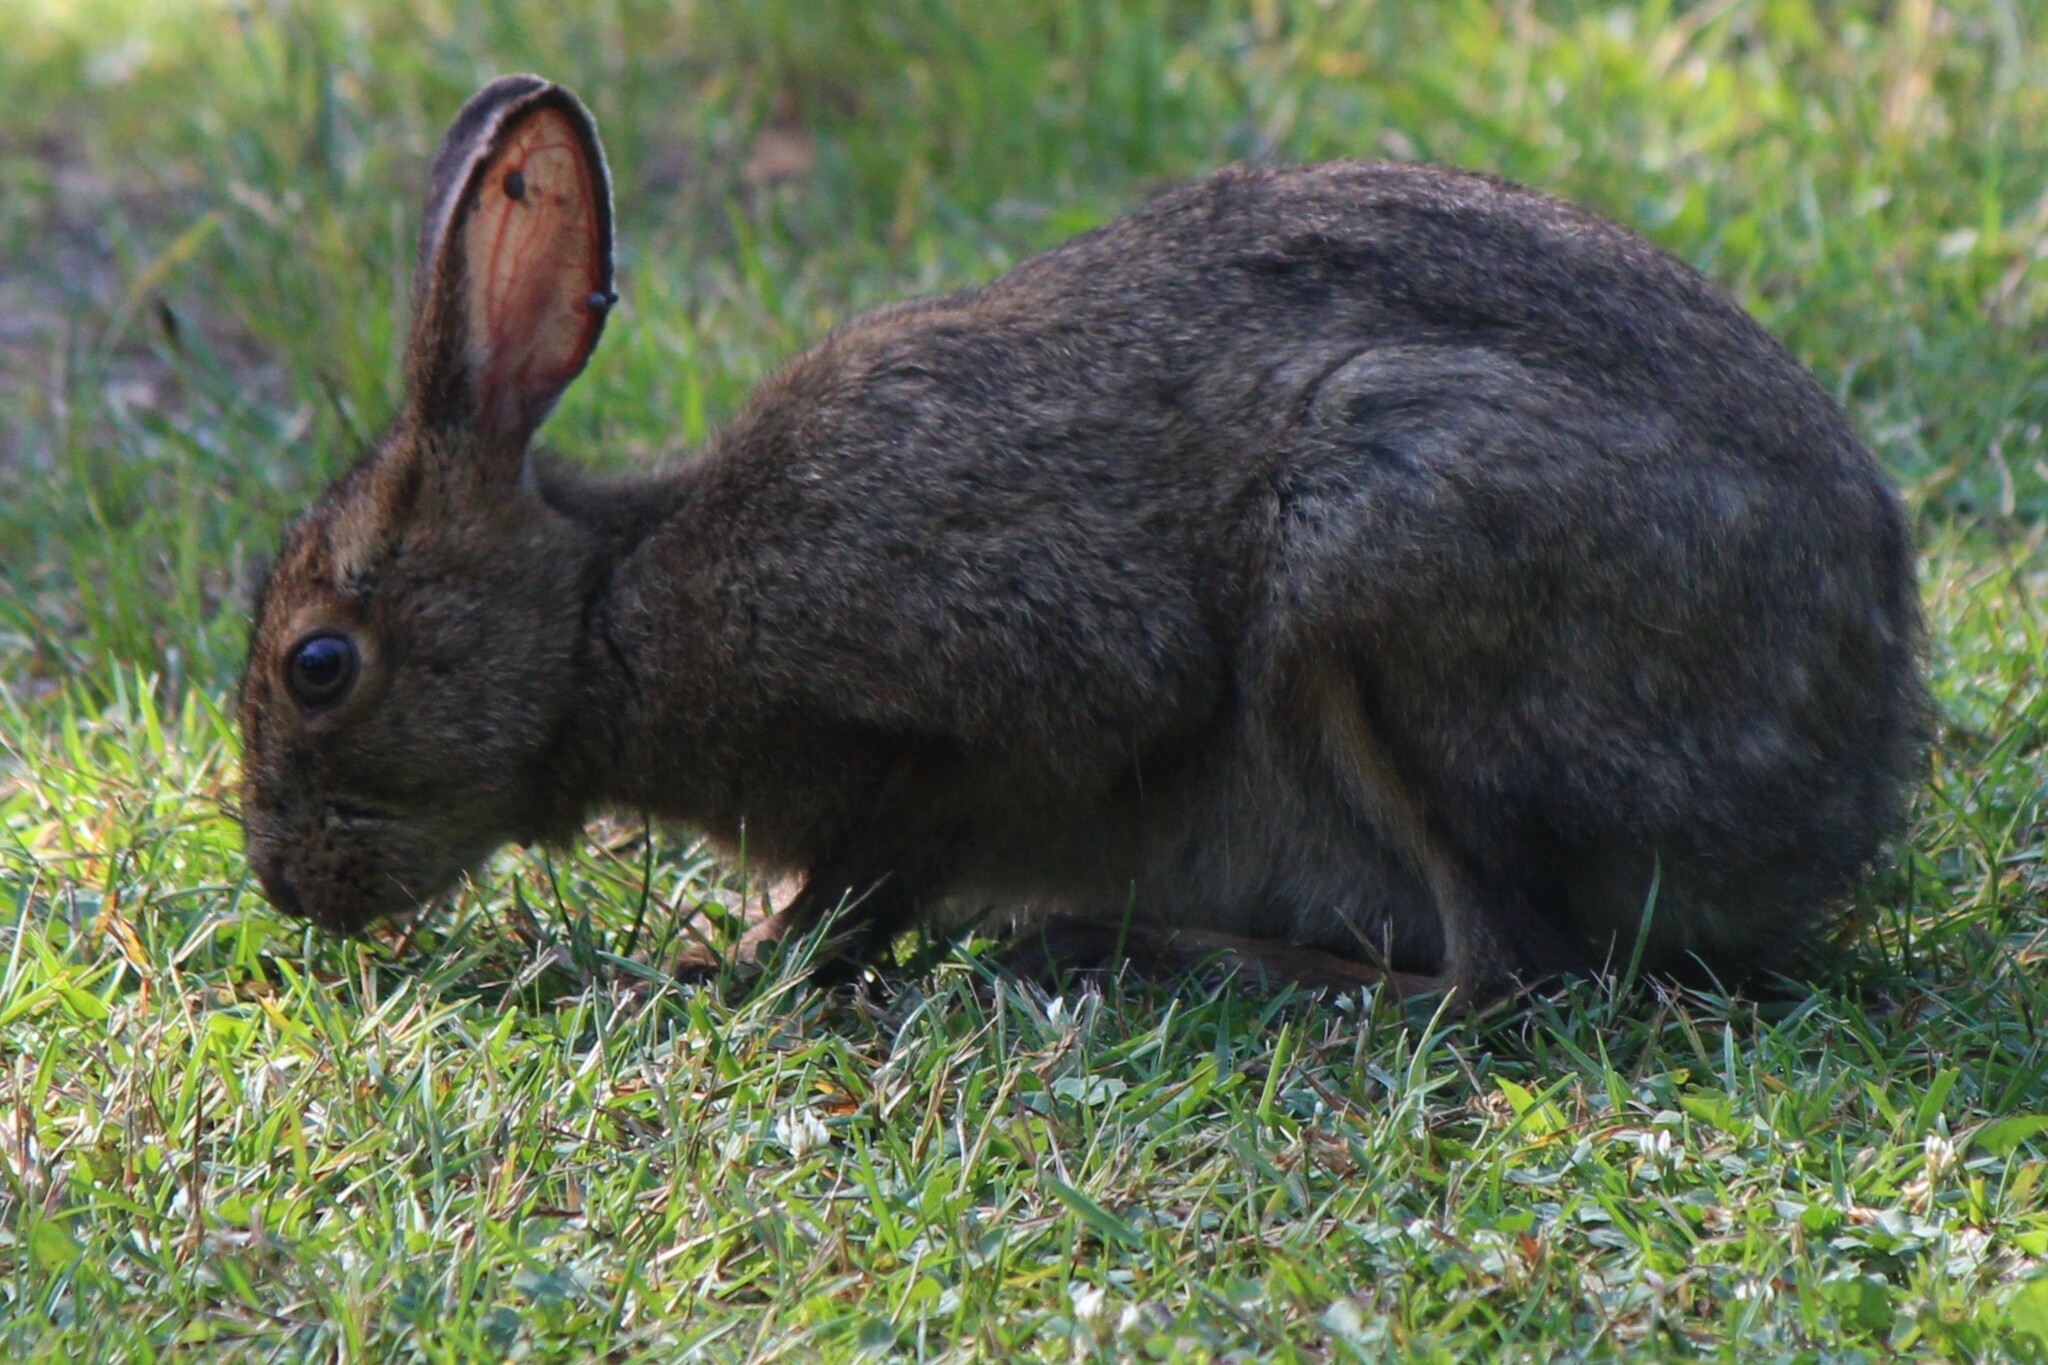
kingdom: Animalia
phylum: Chordata
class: Mammalia
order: Lagomorpha
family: Leporidae
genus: Lepus
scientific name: Lepus americanus
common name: Snowshoe hare
